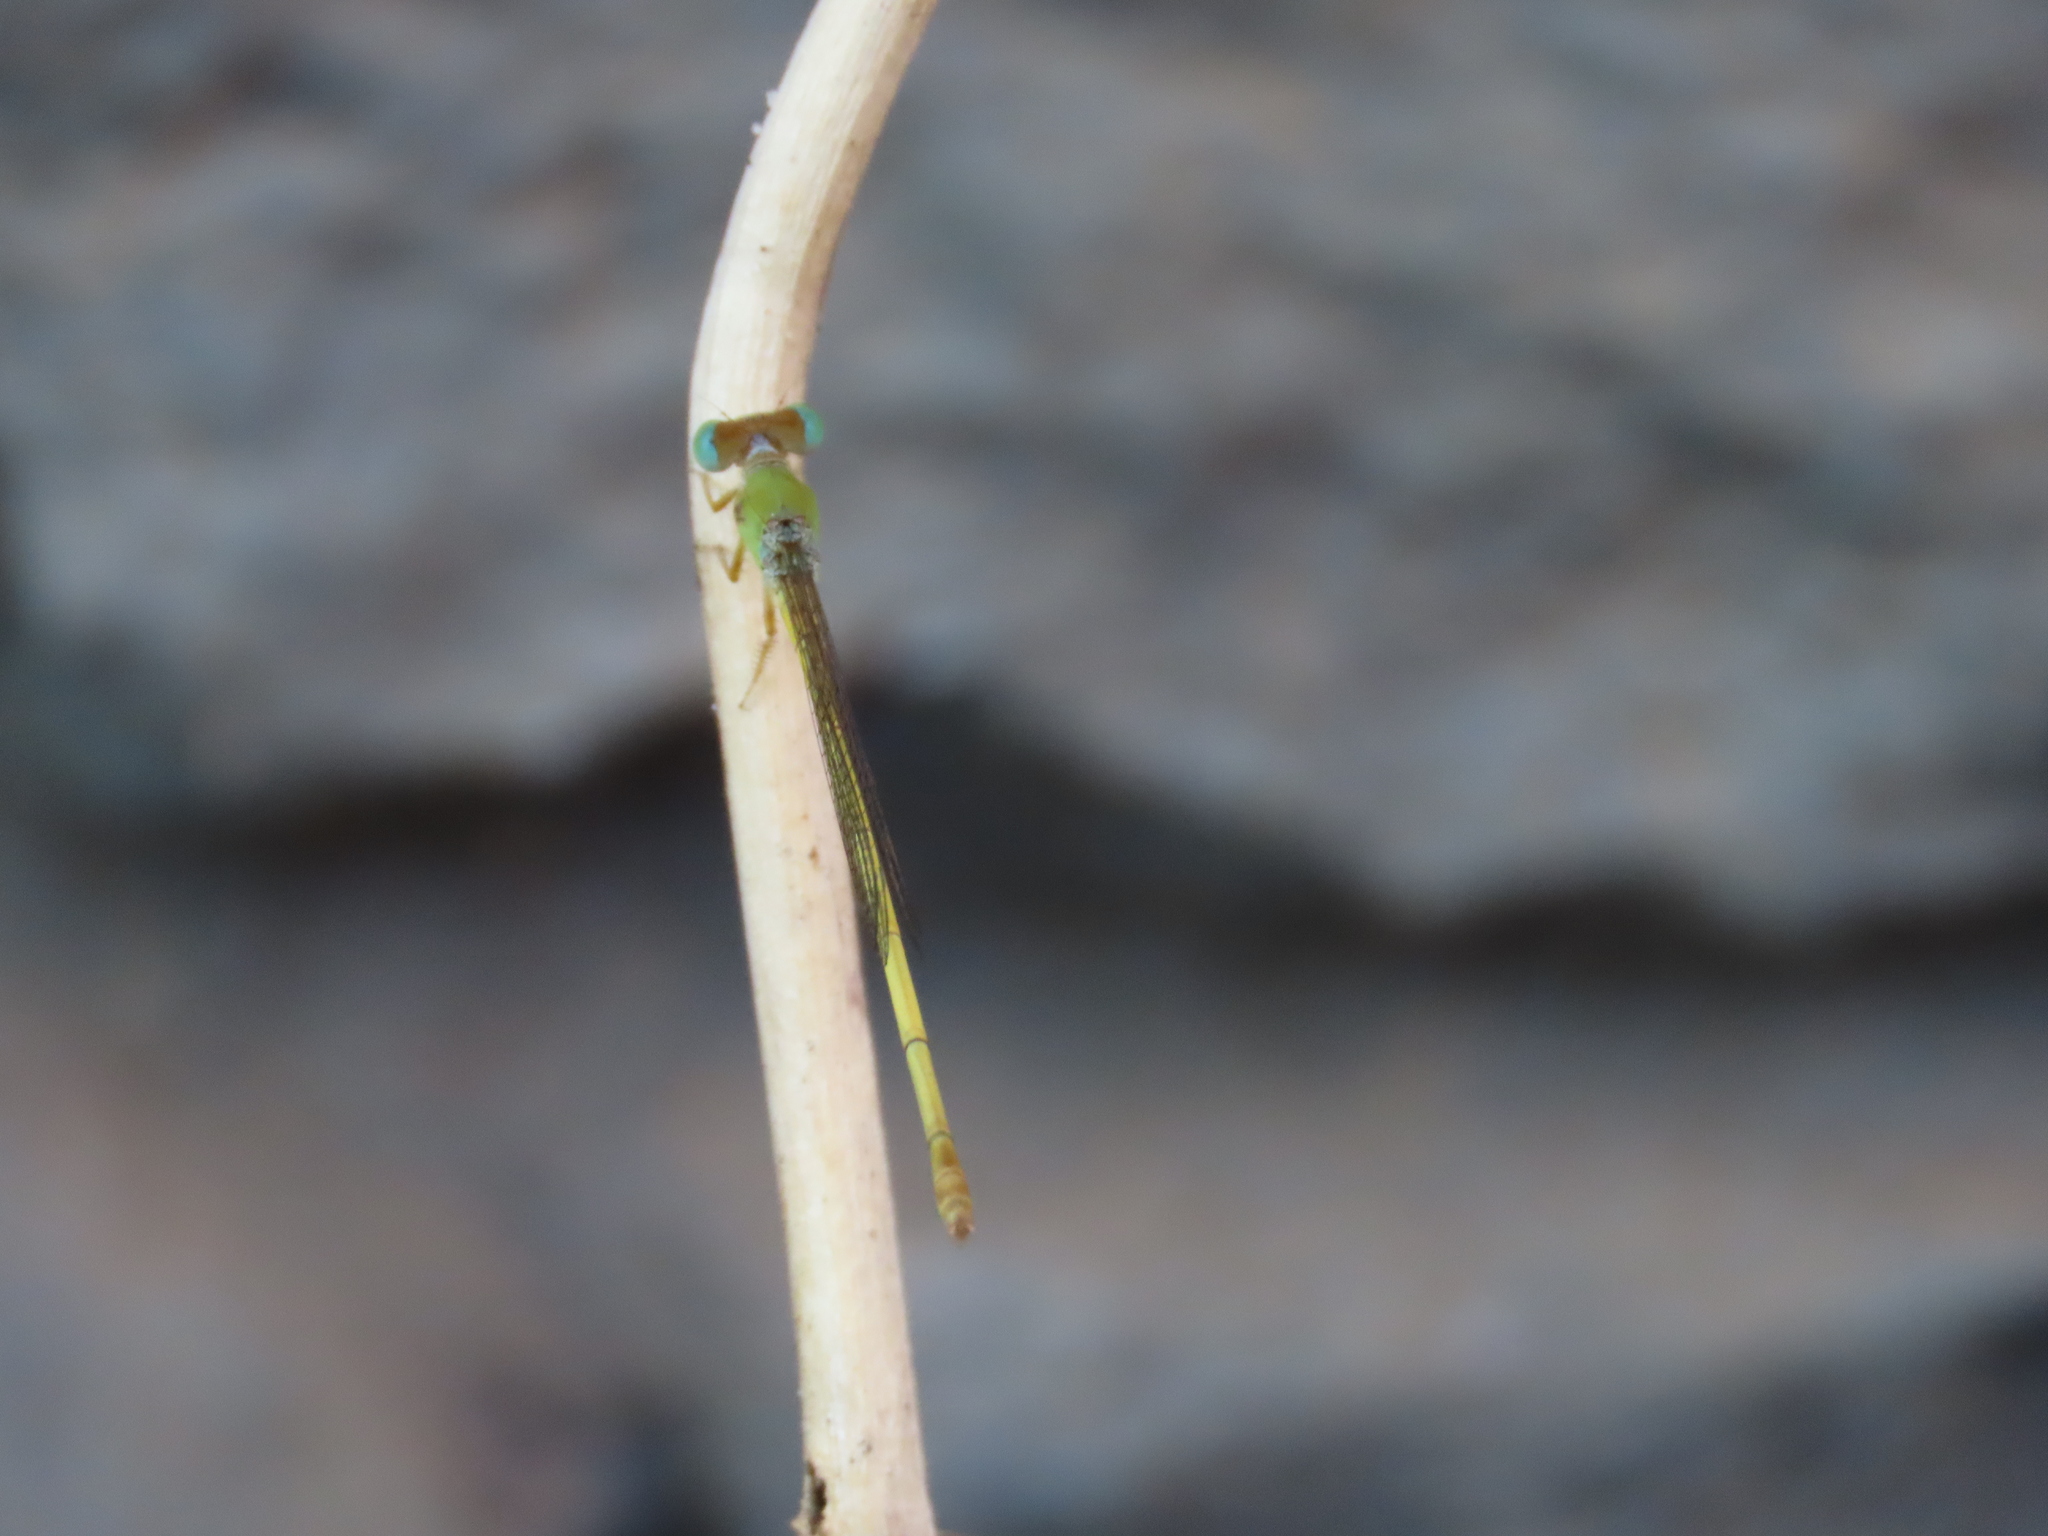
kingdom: Animalia
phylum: Arthropoda
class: Insecta
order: Odonata
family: Coenagrionidae
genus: Ceriagrion
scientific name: Ceriagrion coromandelianum
